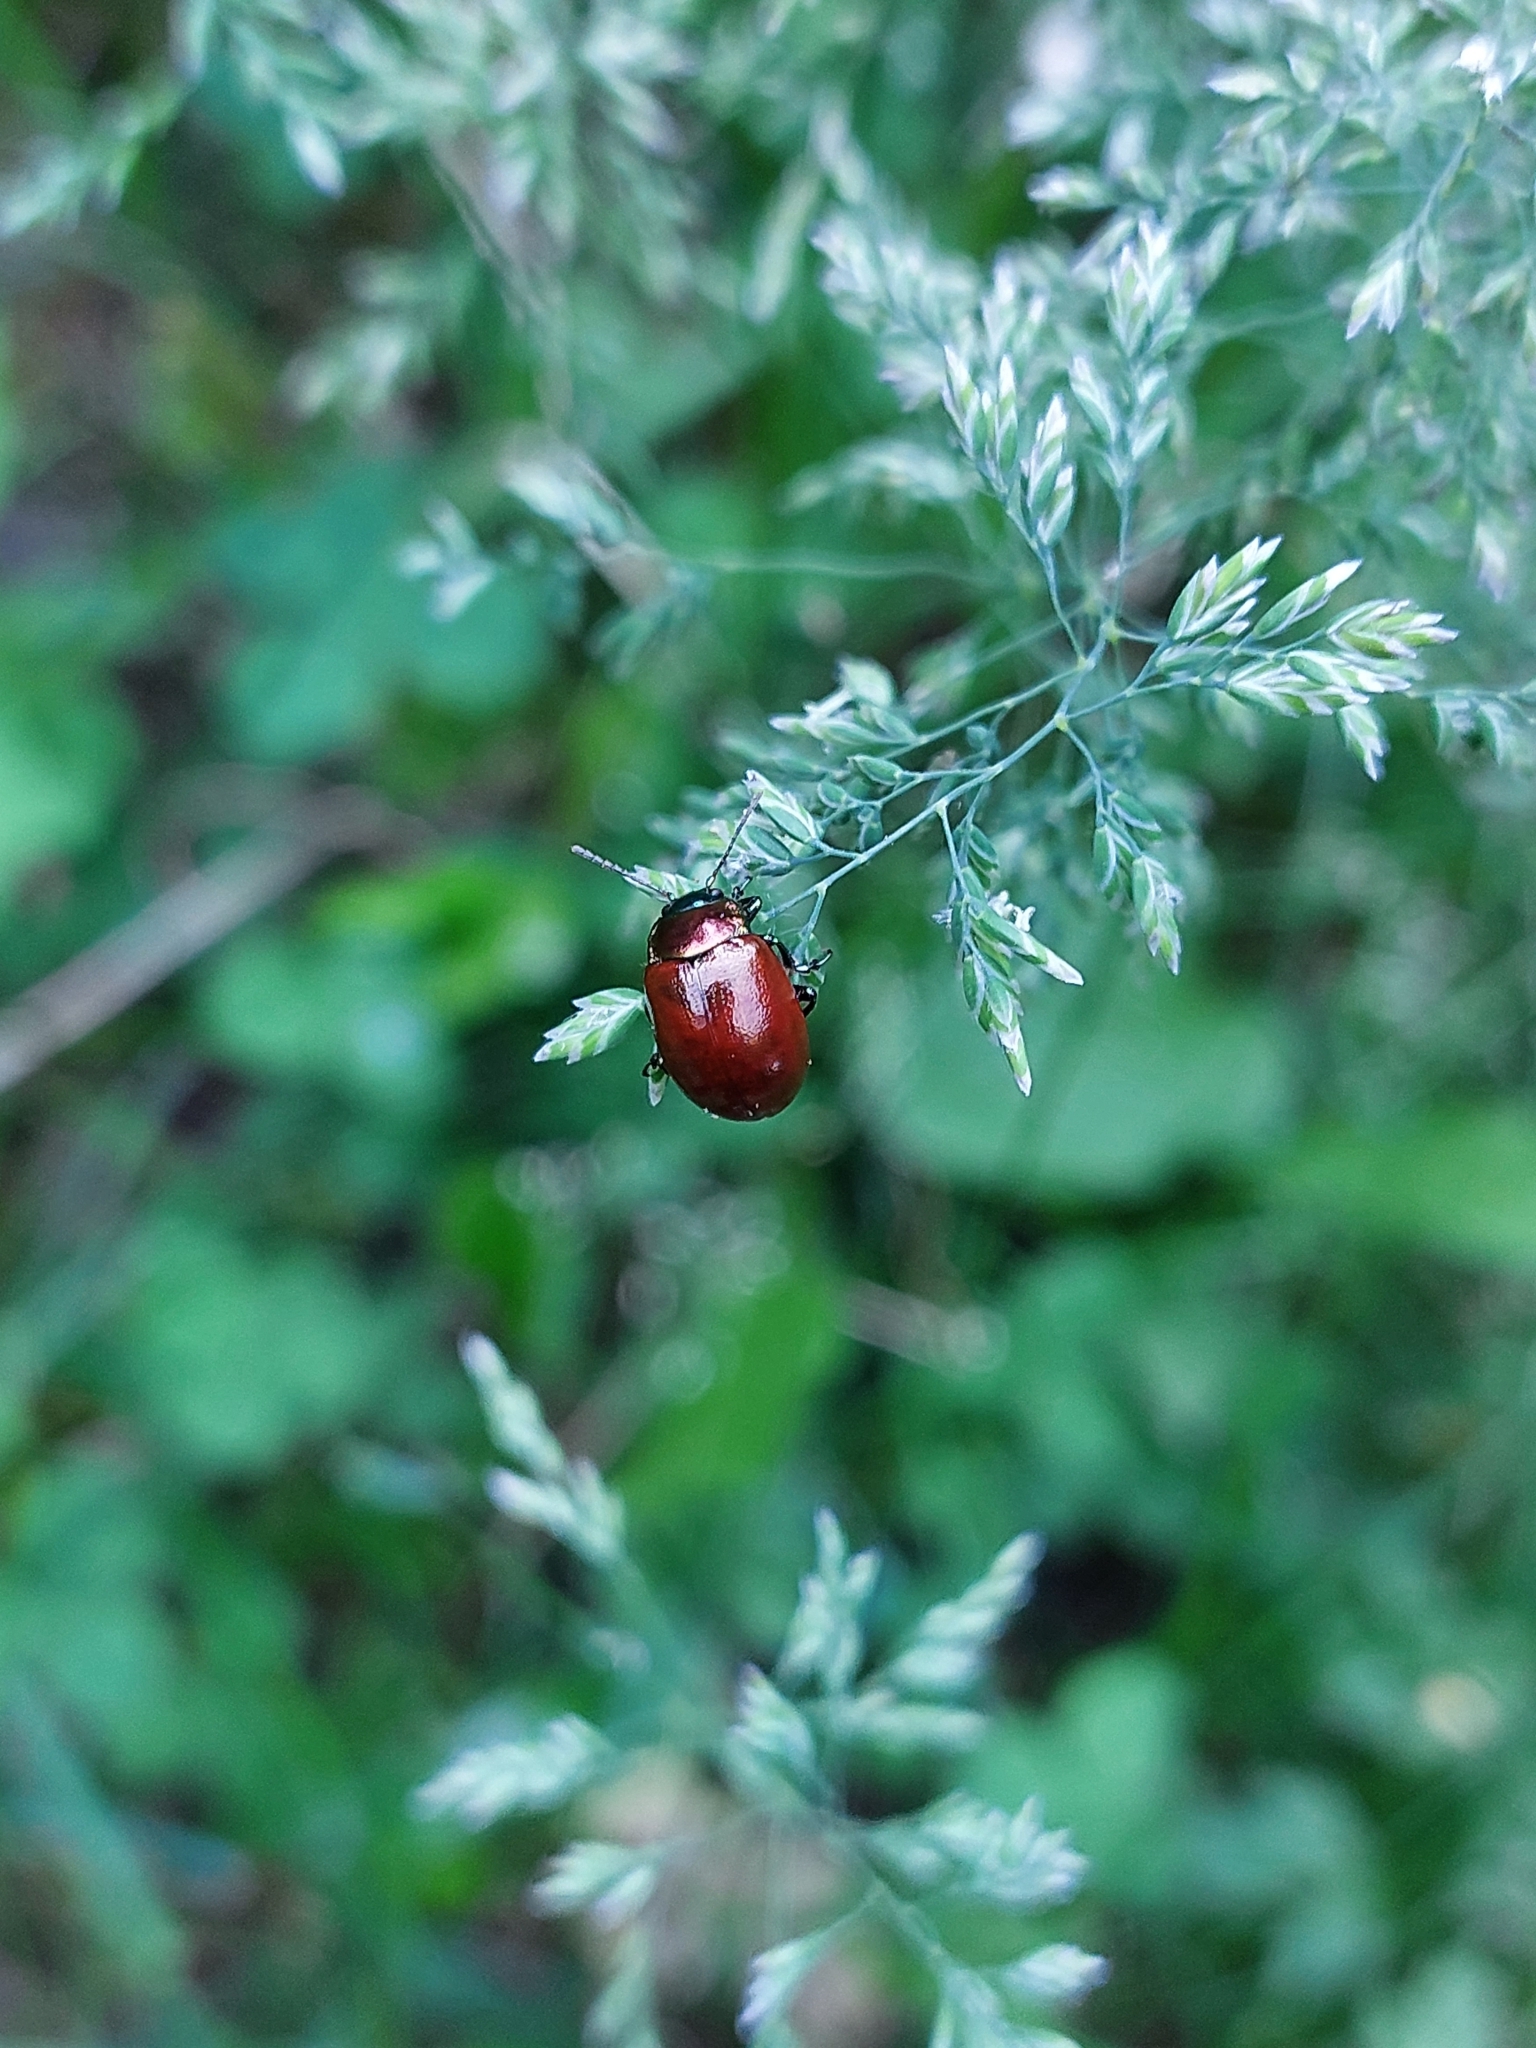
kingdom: Animalia
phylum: Arthropoda
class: Insecta
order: Coleoptera
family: Chrysomelidae
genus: Chrysomela
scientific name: Chrysomela polita
